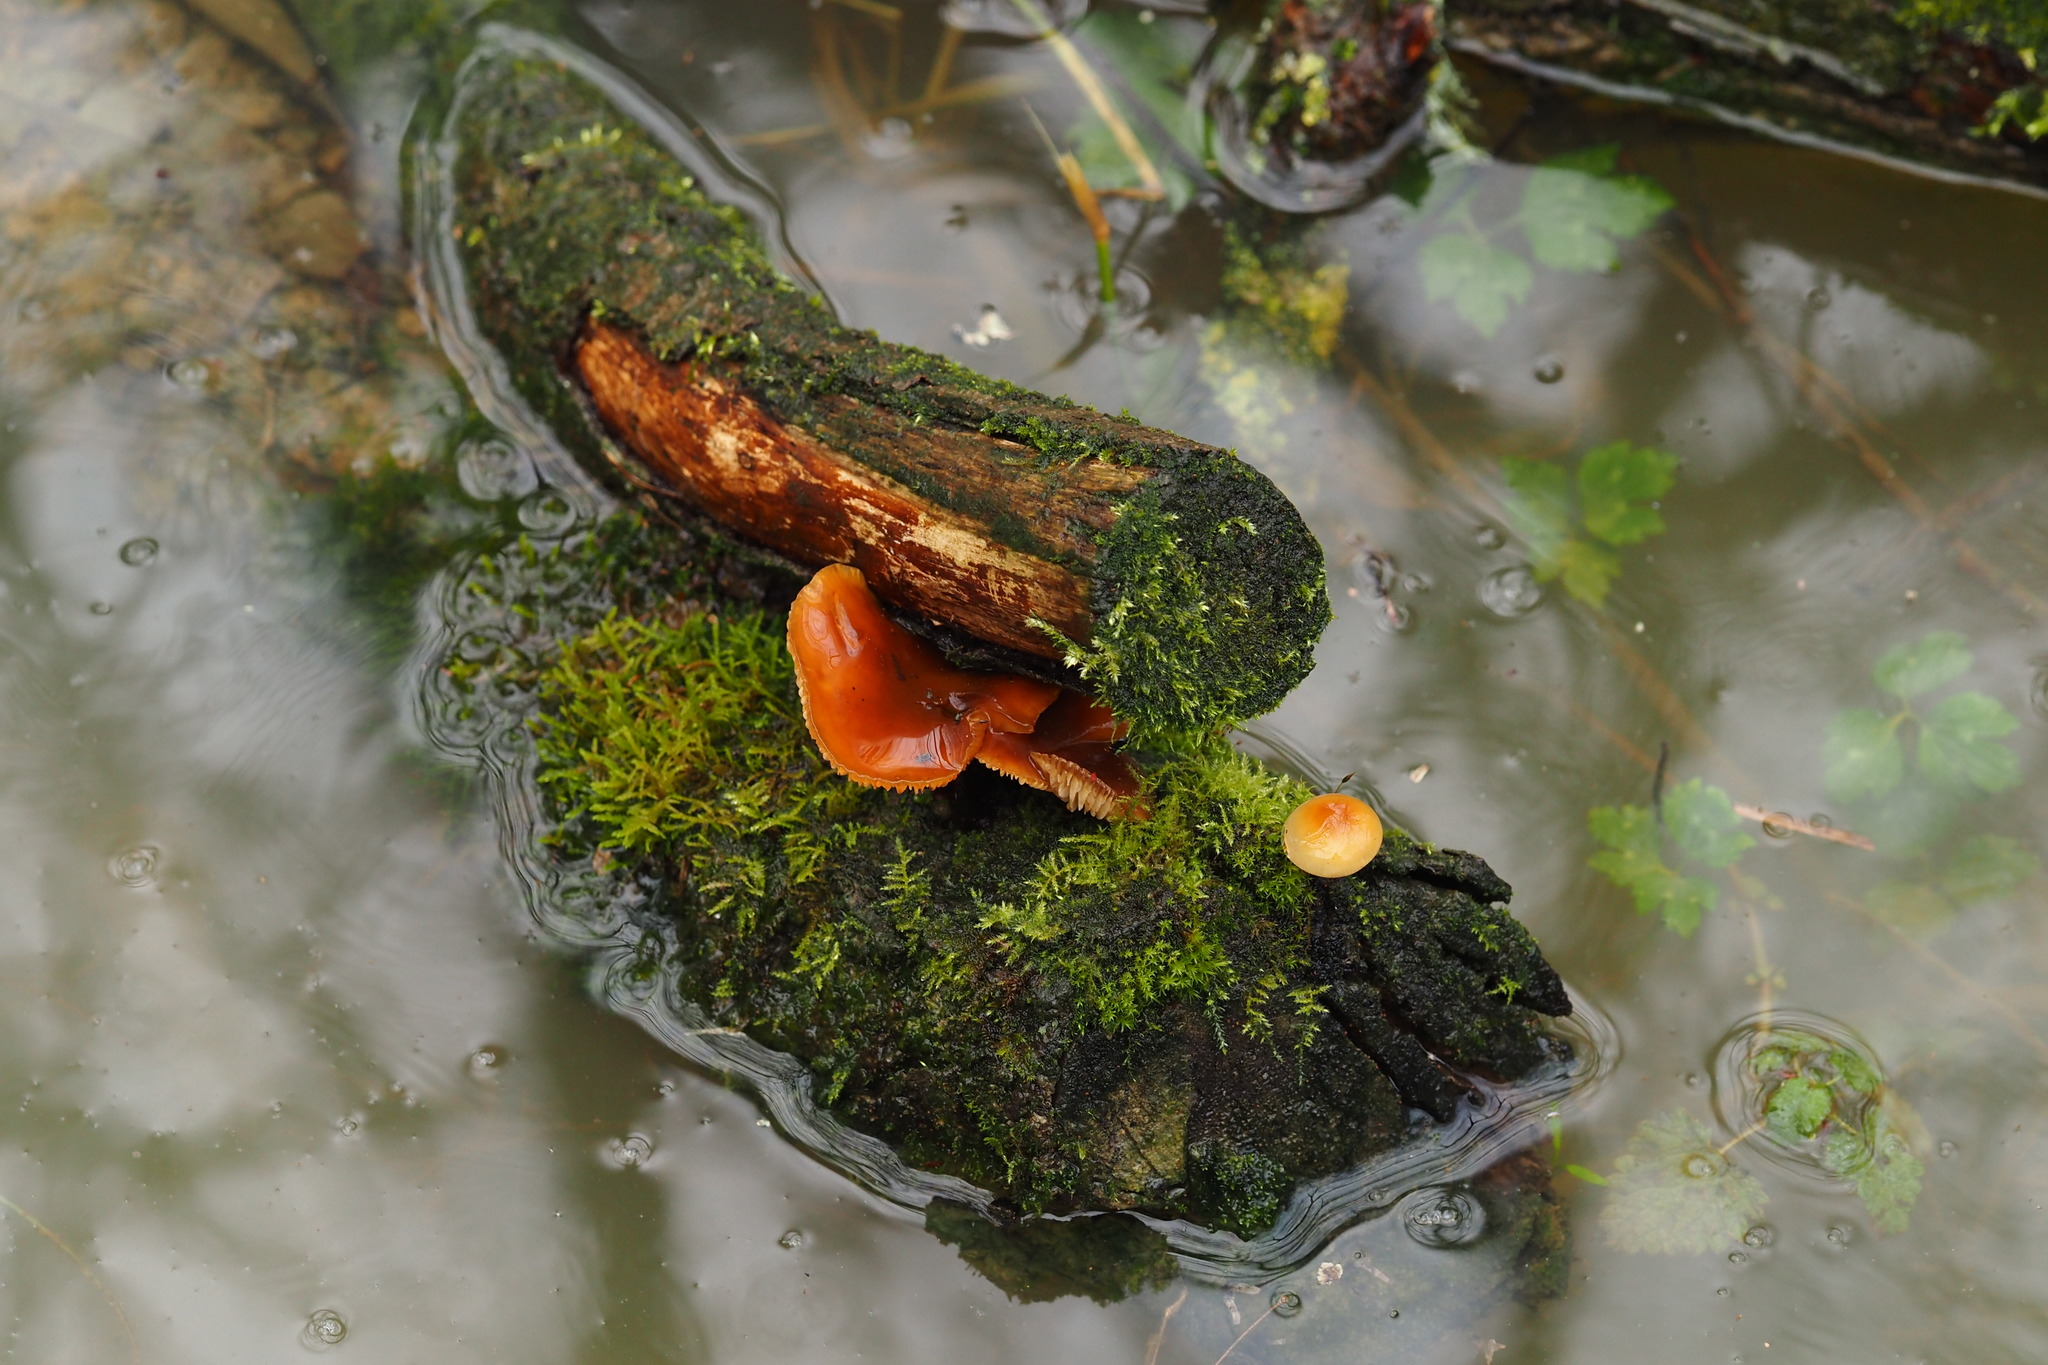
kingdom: Fungi
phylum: Basidiomycota
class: Agaricomycetes
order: Agaricales
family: Physalacriaceae
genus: Flammulina
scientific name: Flammulina
